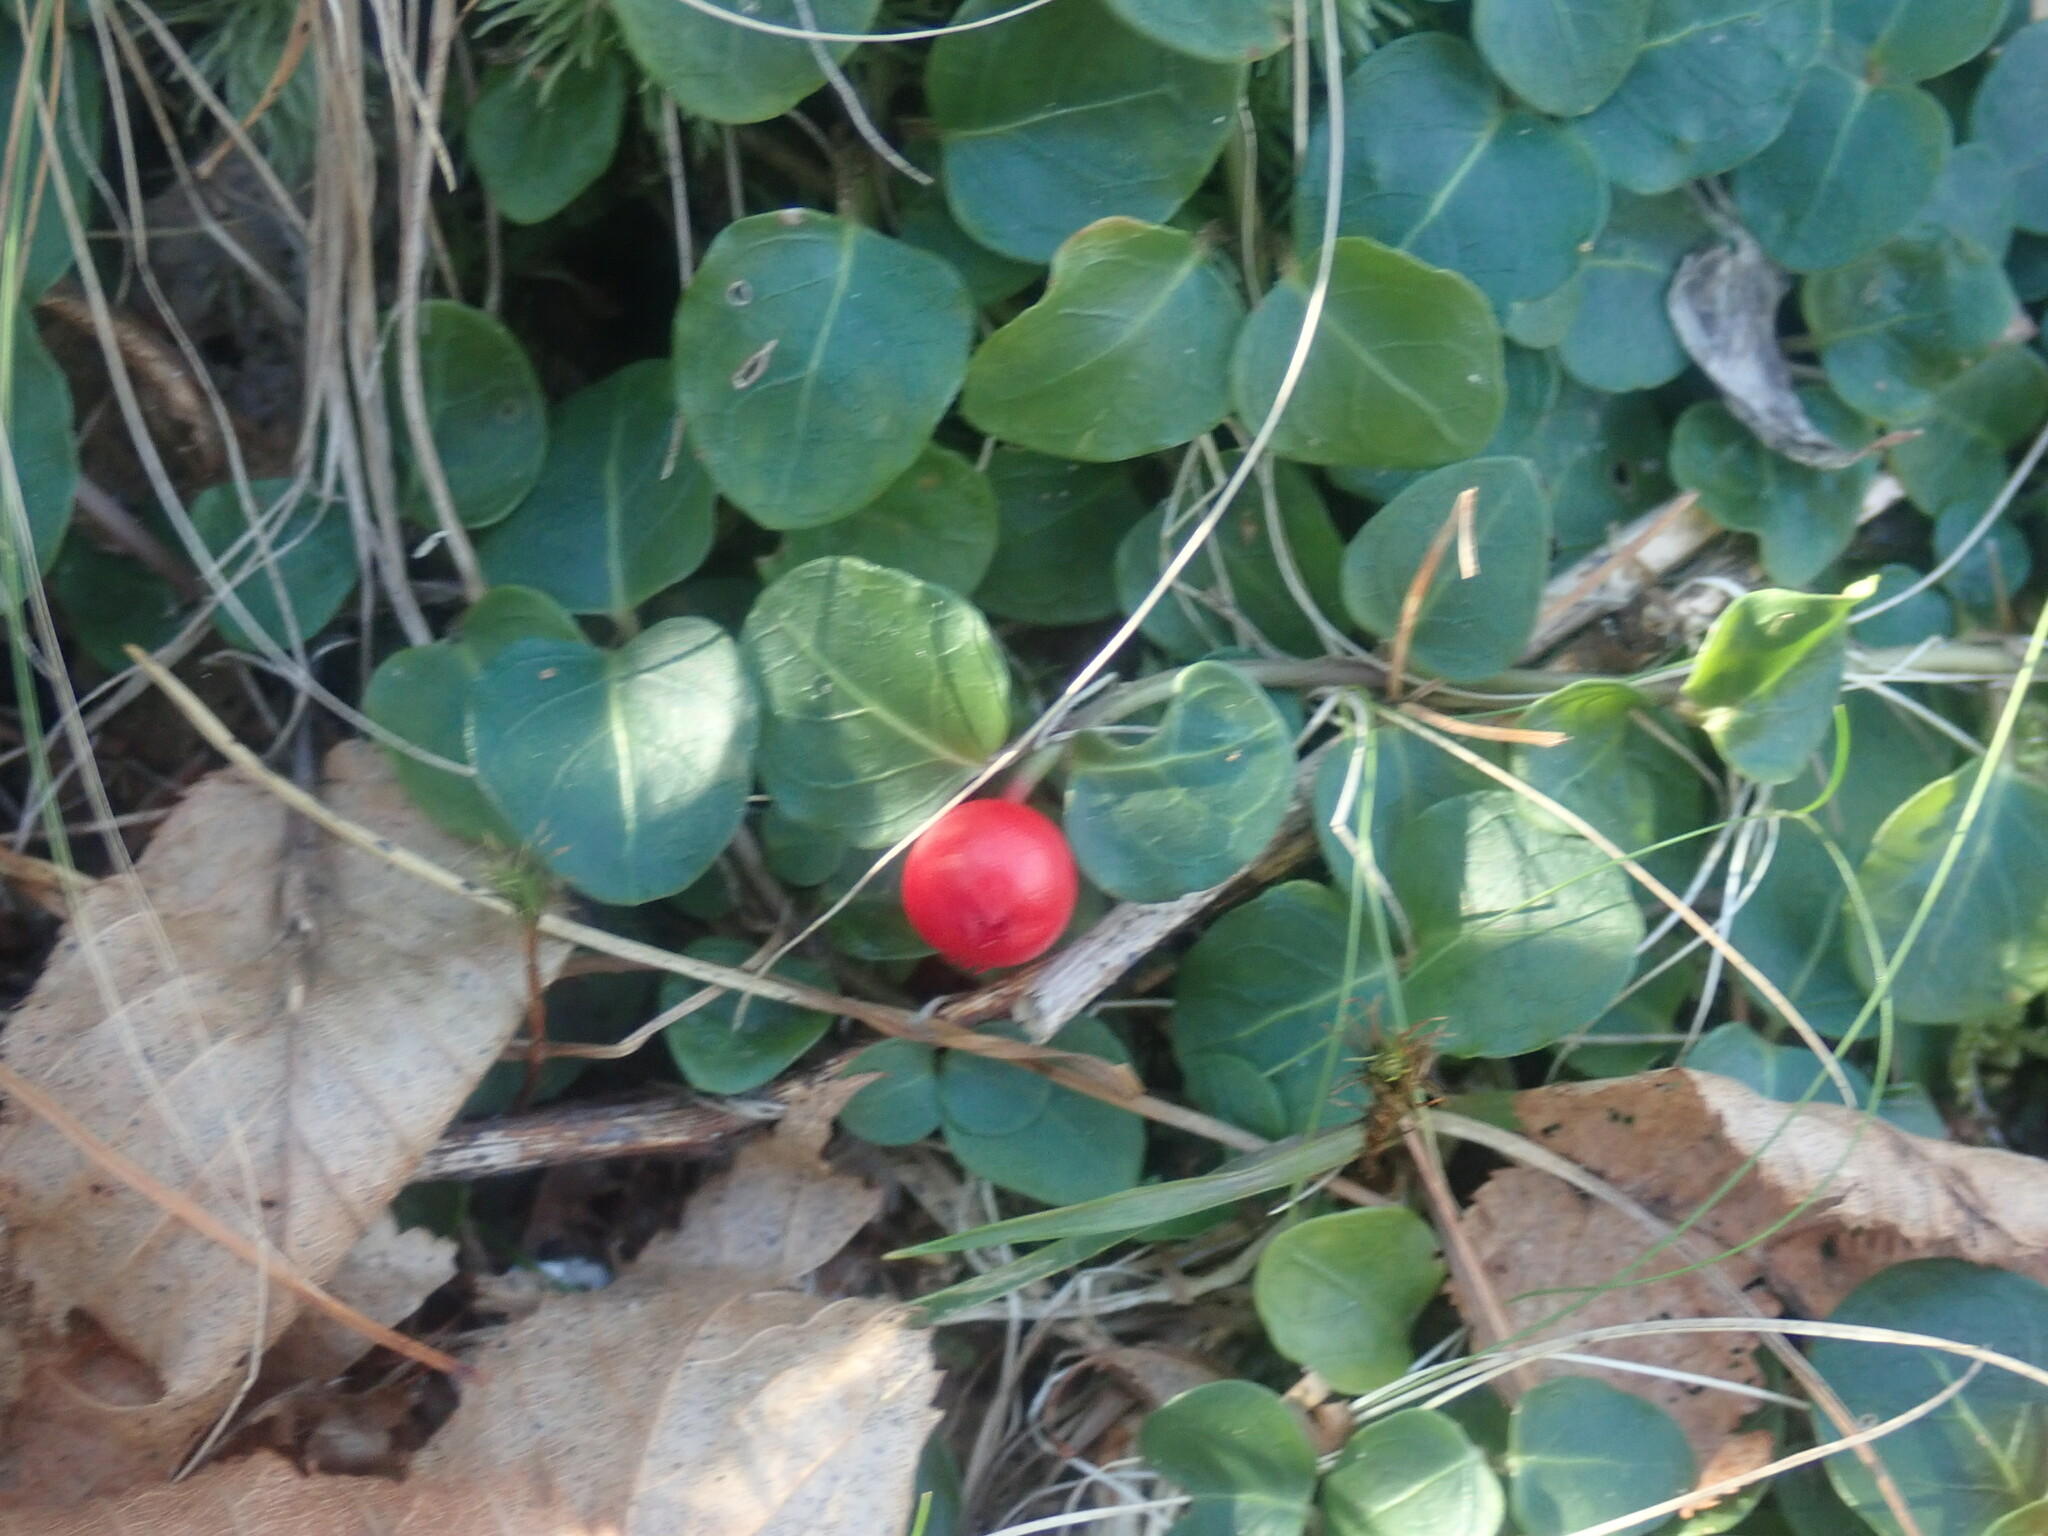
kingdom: Plantae
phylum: Tracheophyta
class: Magnoliopsida
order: Gentianales
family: Rubiaceae
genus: Mitchella
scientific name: Mitchella repens
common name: Partridge-berry
